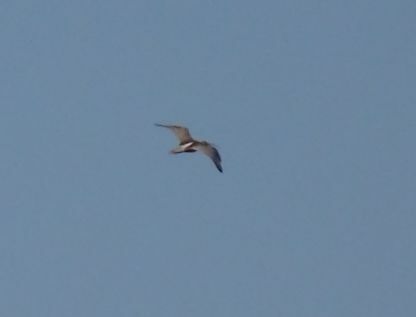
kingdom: Animalia
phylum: Chordata
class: Aves
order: Charadriiformes
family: Scolopacidae
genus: Numenius
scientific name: Numenius arquata
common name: Eurasian curlew
